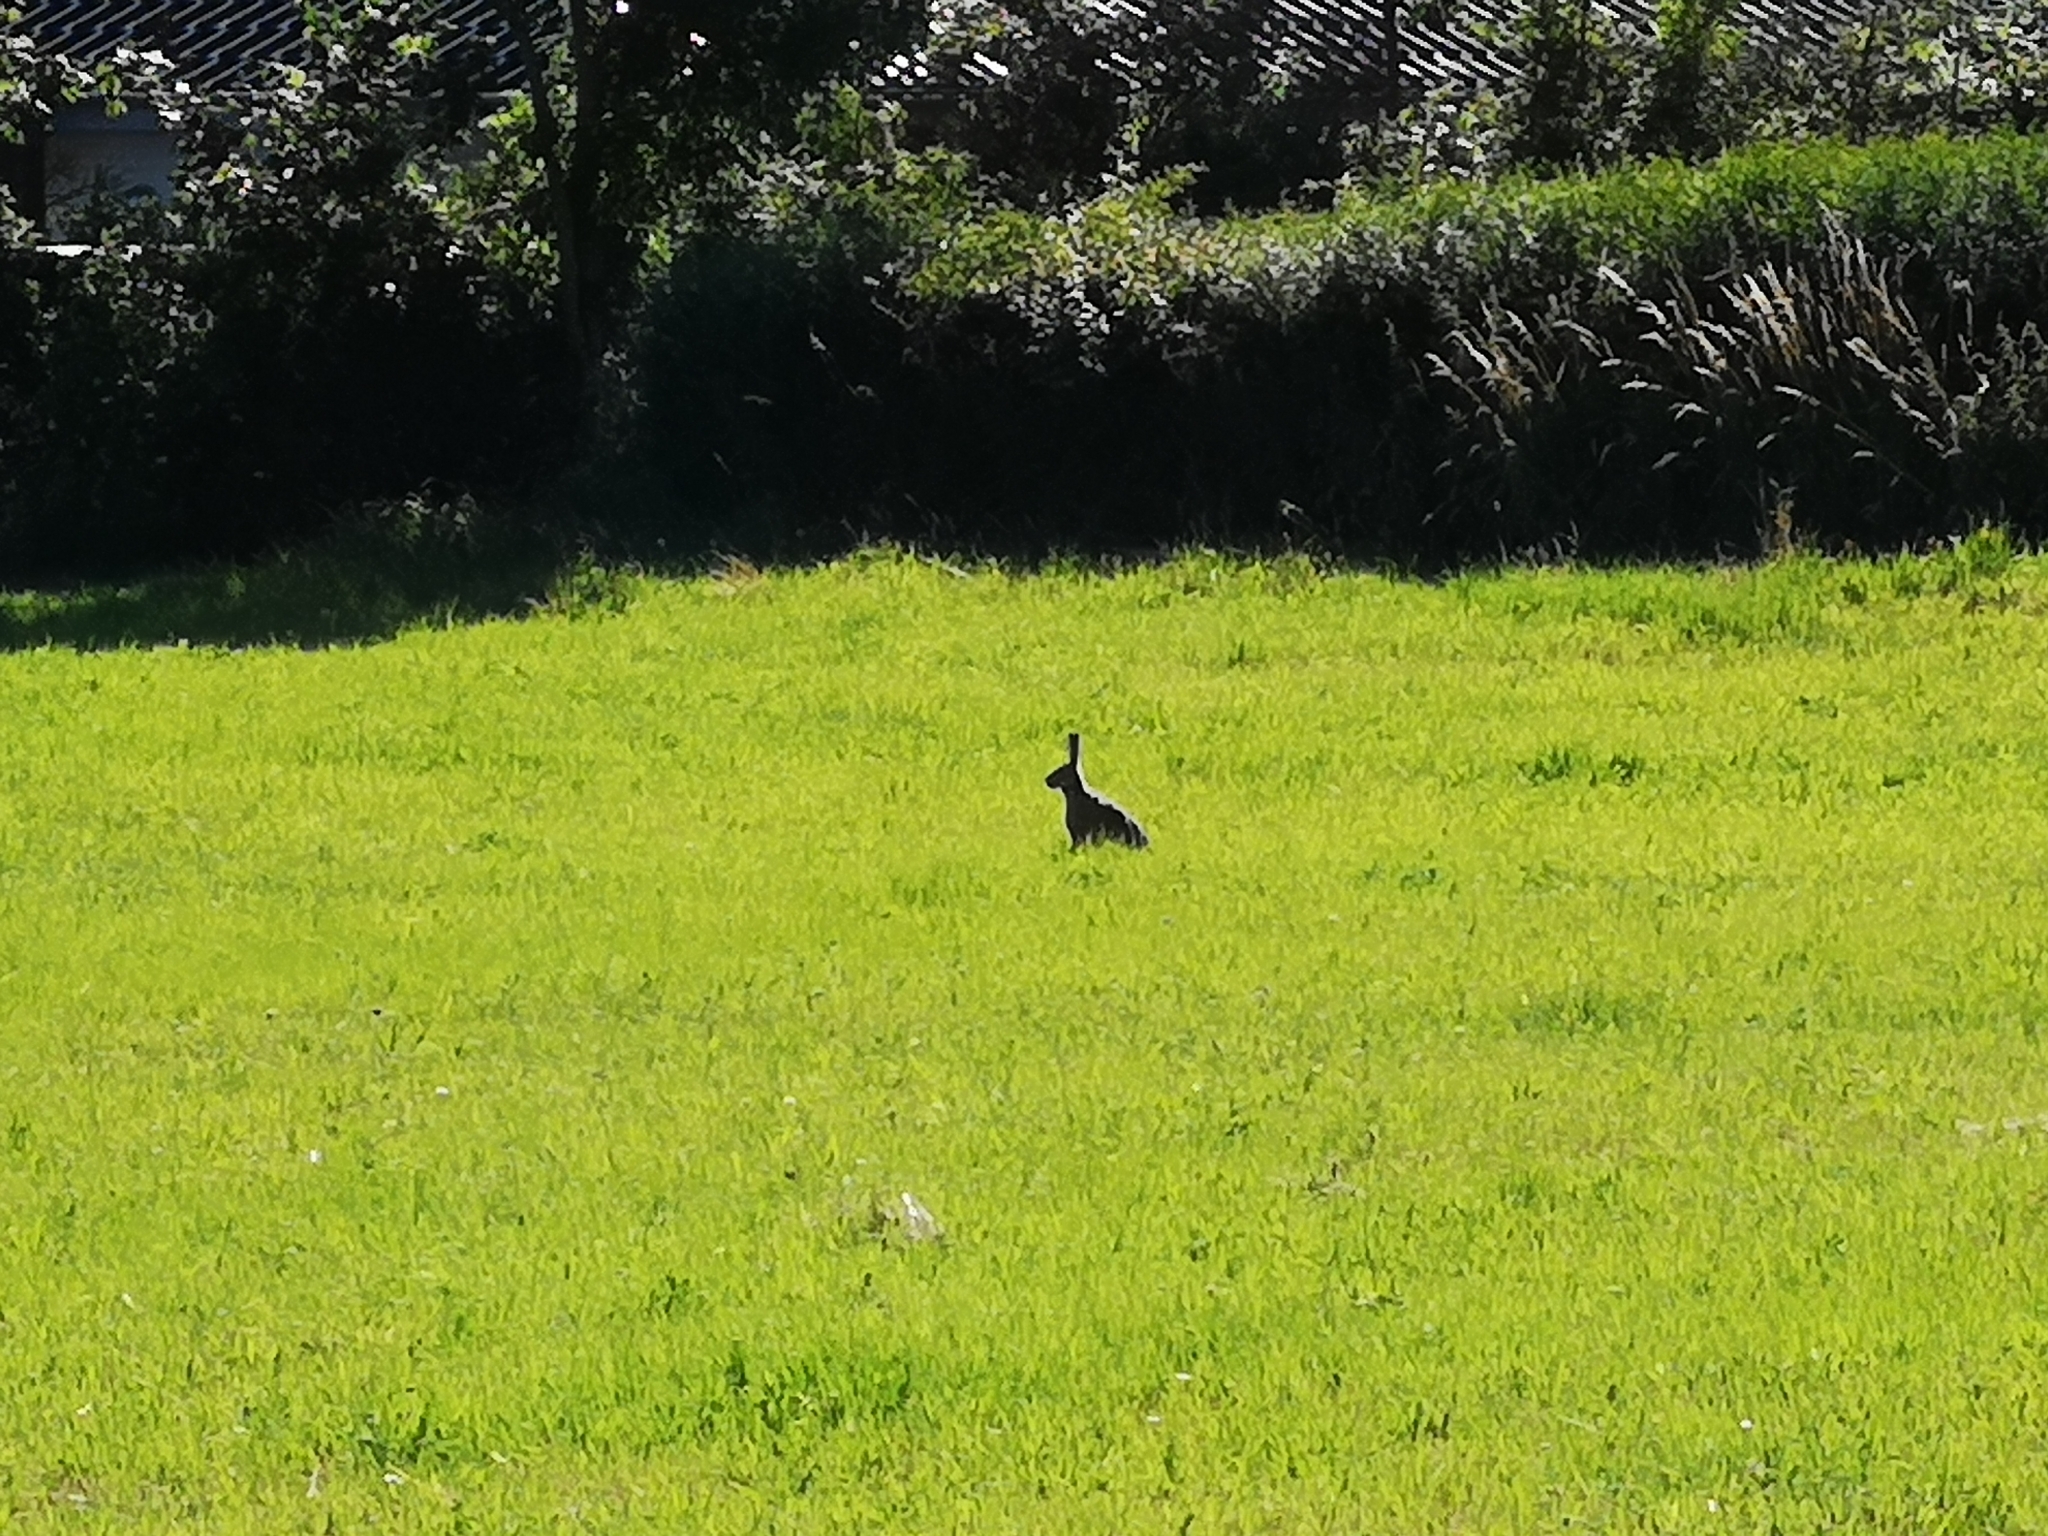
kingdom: Animalia
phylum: Chordata
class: Mammalia
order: Lagomorpha
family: Leporidae
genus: Lepus
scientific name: Lepus europaeus
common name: European hare
